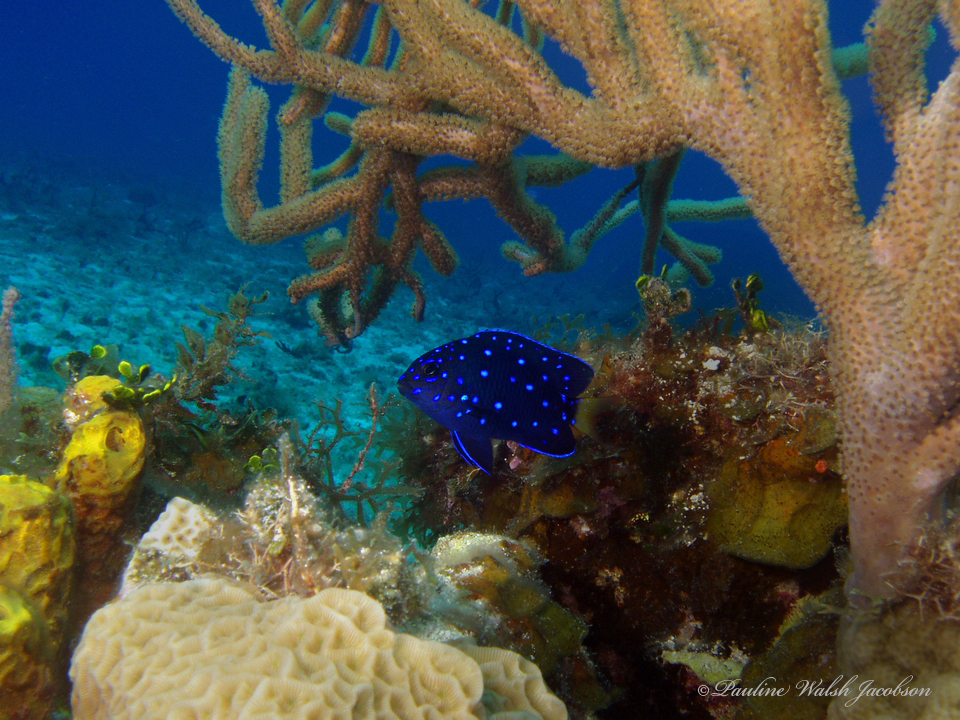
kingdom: Animalia
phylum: Chordata
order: Perciformes
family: Pomacentridae
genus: Microspathodon
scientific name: Microspathodon chrysurus
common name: Yellowtail damselfish
